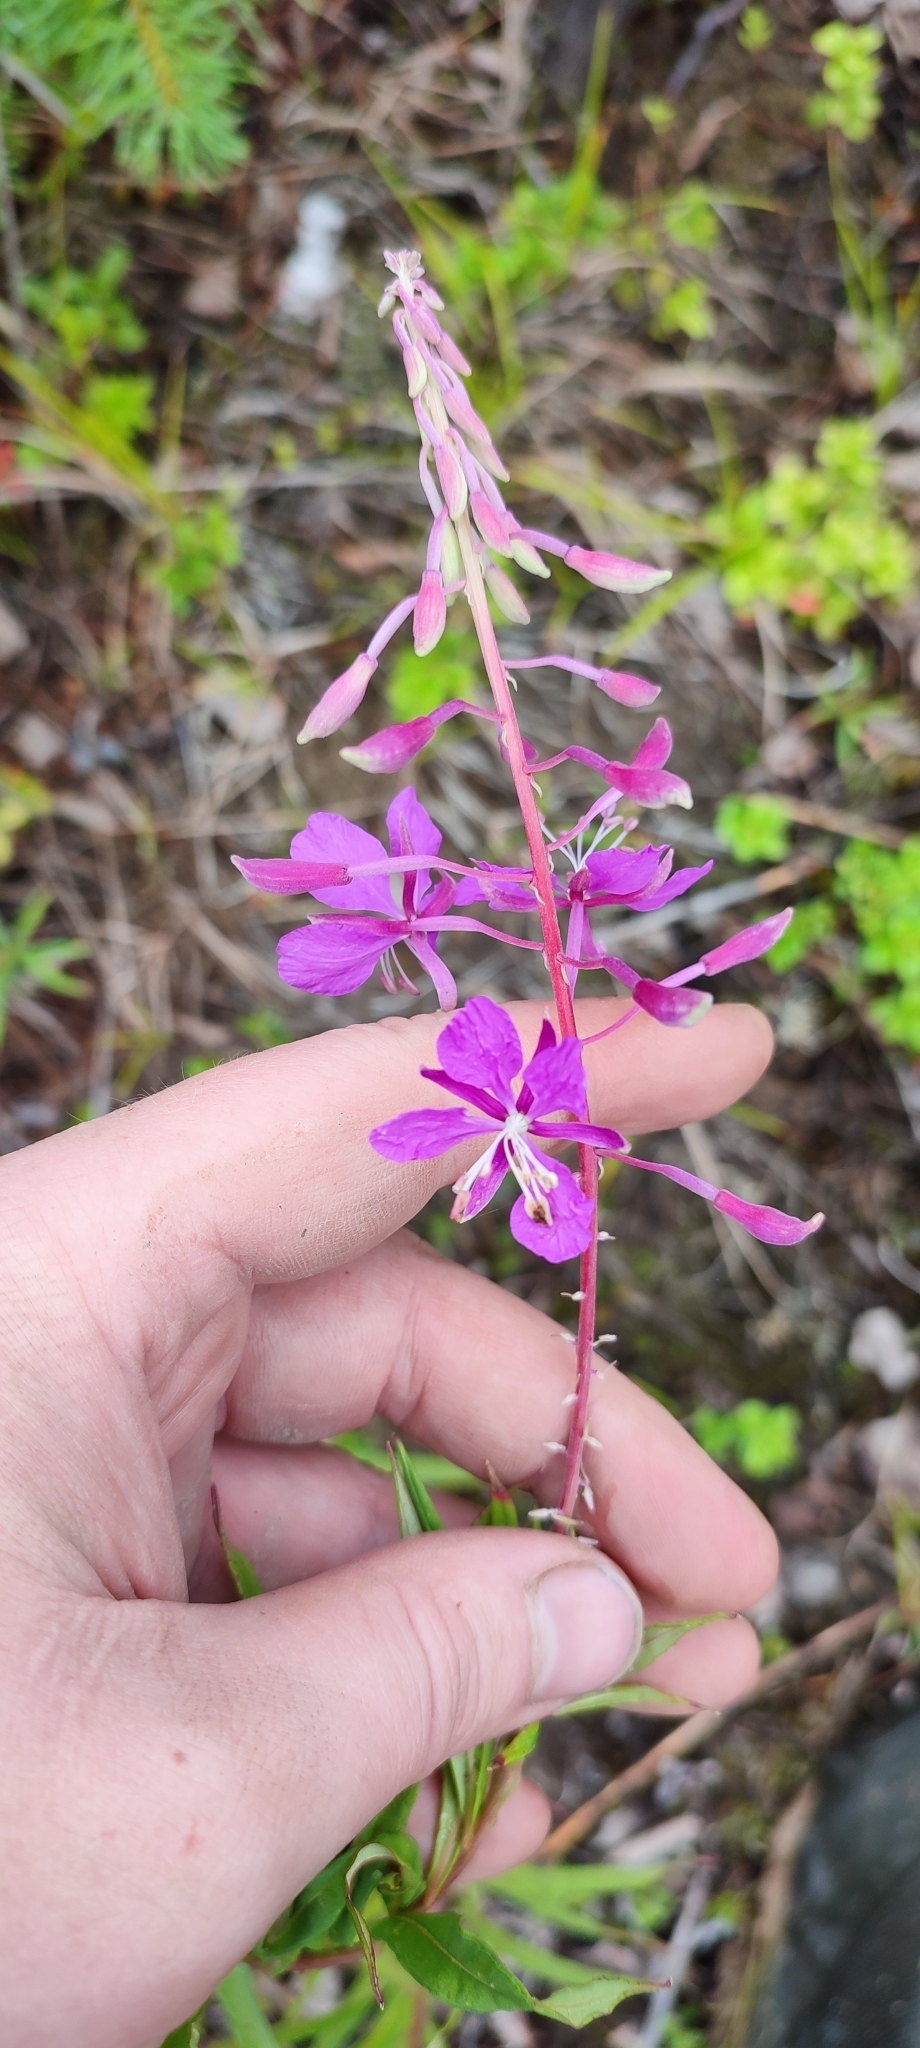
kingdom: Plantae
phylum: Tracheophyta
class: Magnoliopsida
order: Myrtales
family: Onagraceae
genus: Chamaenerion
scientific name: Chamaenerion angustifolium
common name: Fireweed
